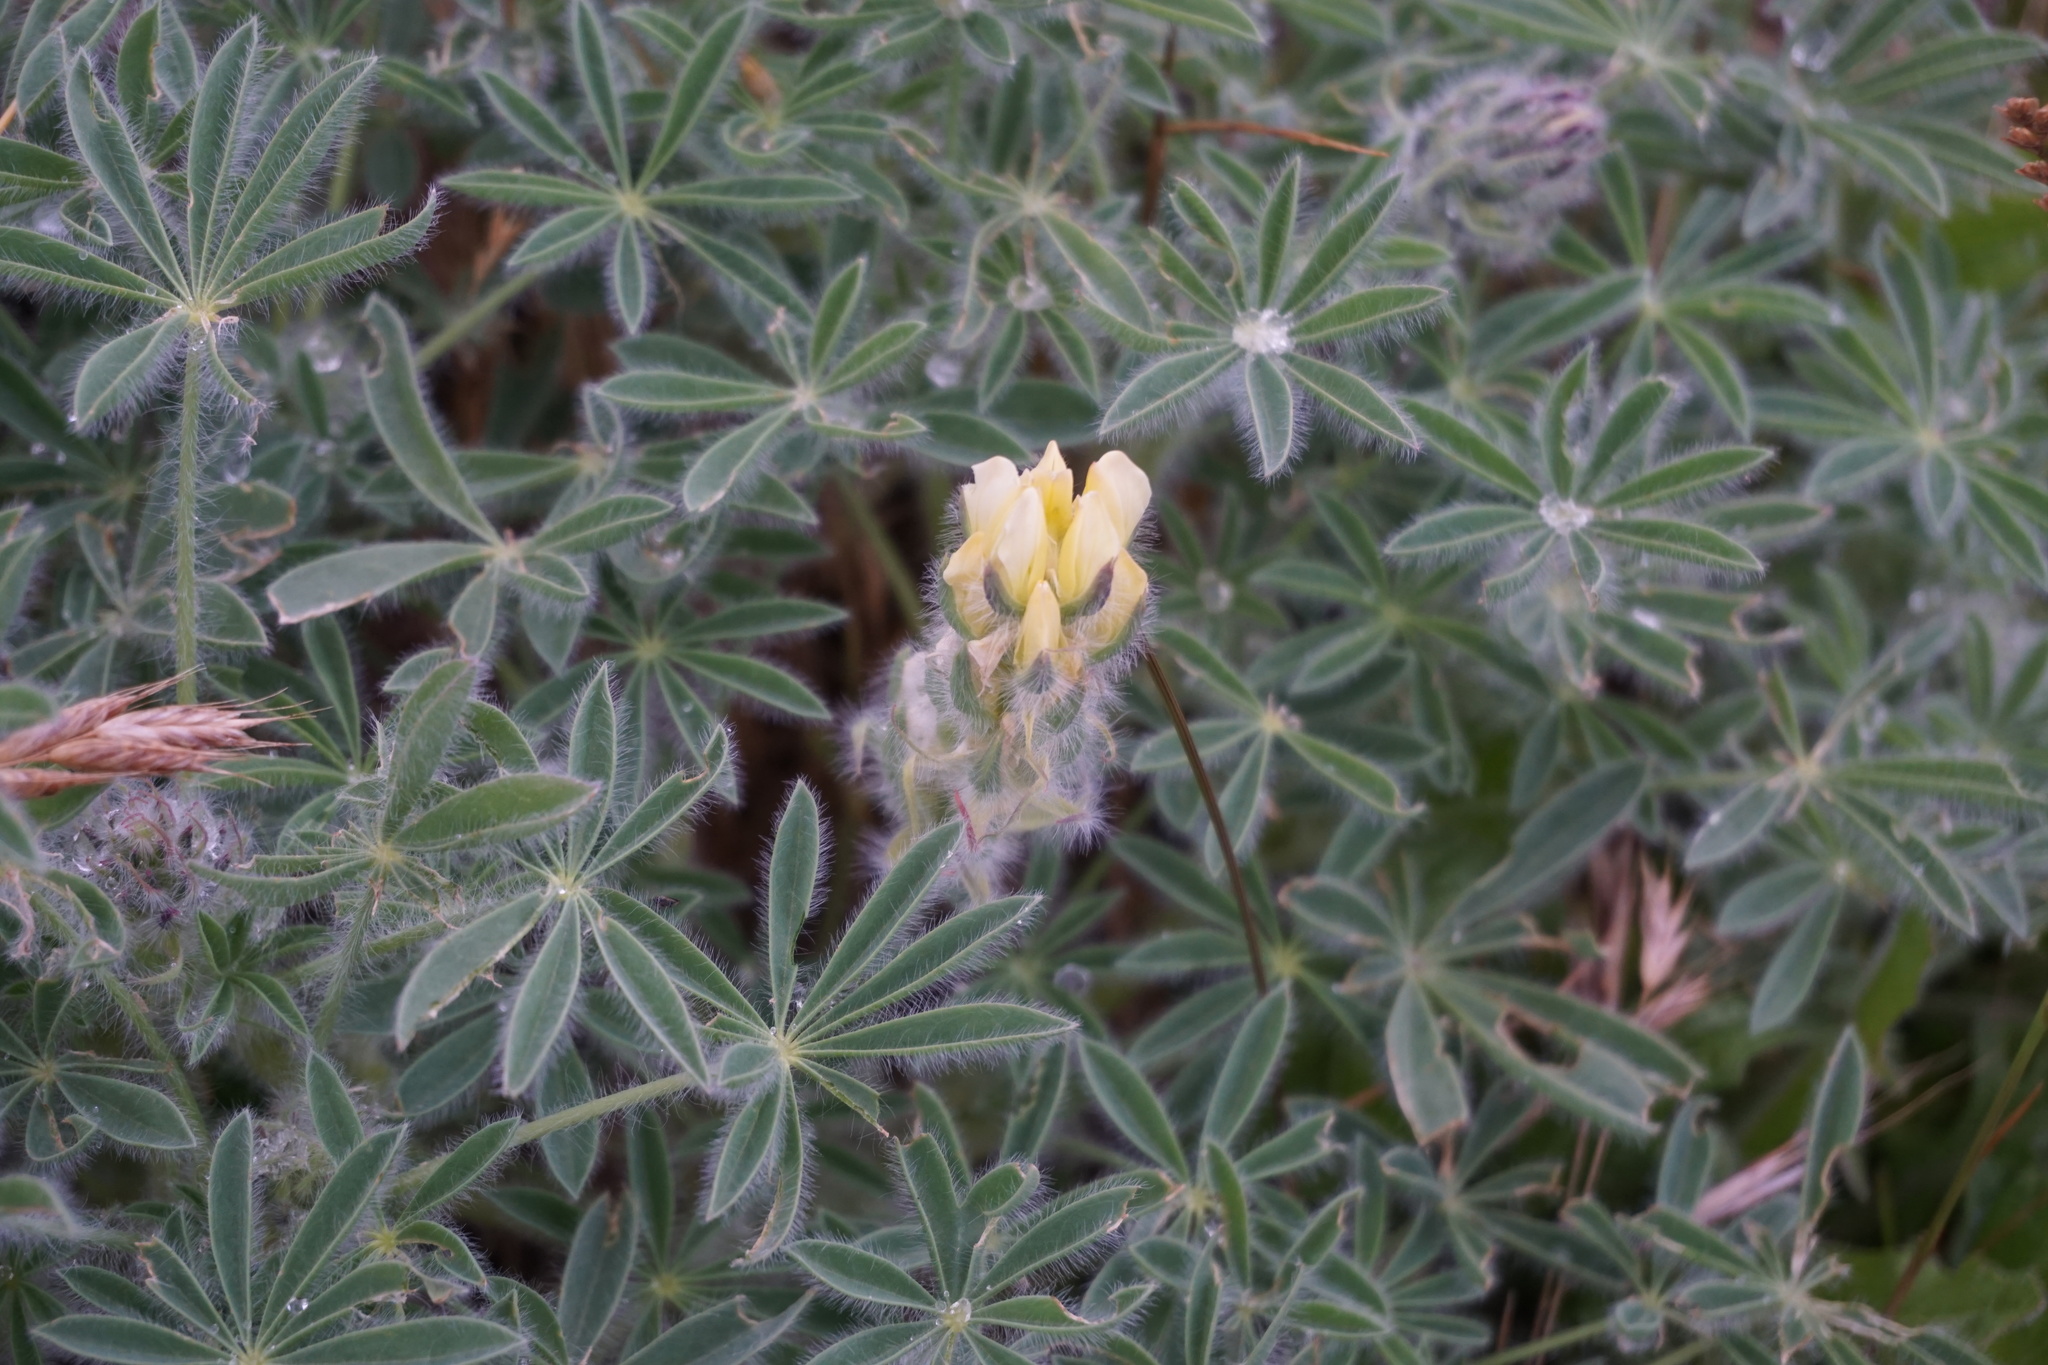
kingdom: Plantae
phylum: Tracheophyta
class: Magnoliopsida
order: Fabales
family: Fabaceae
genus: Lupinus
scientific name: Lupinus densiflorus
